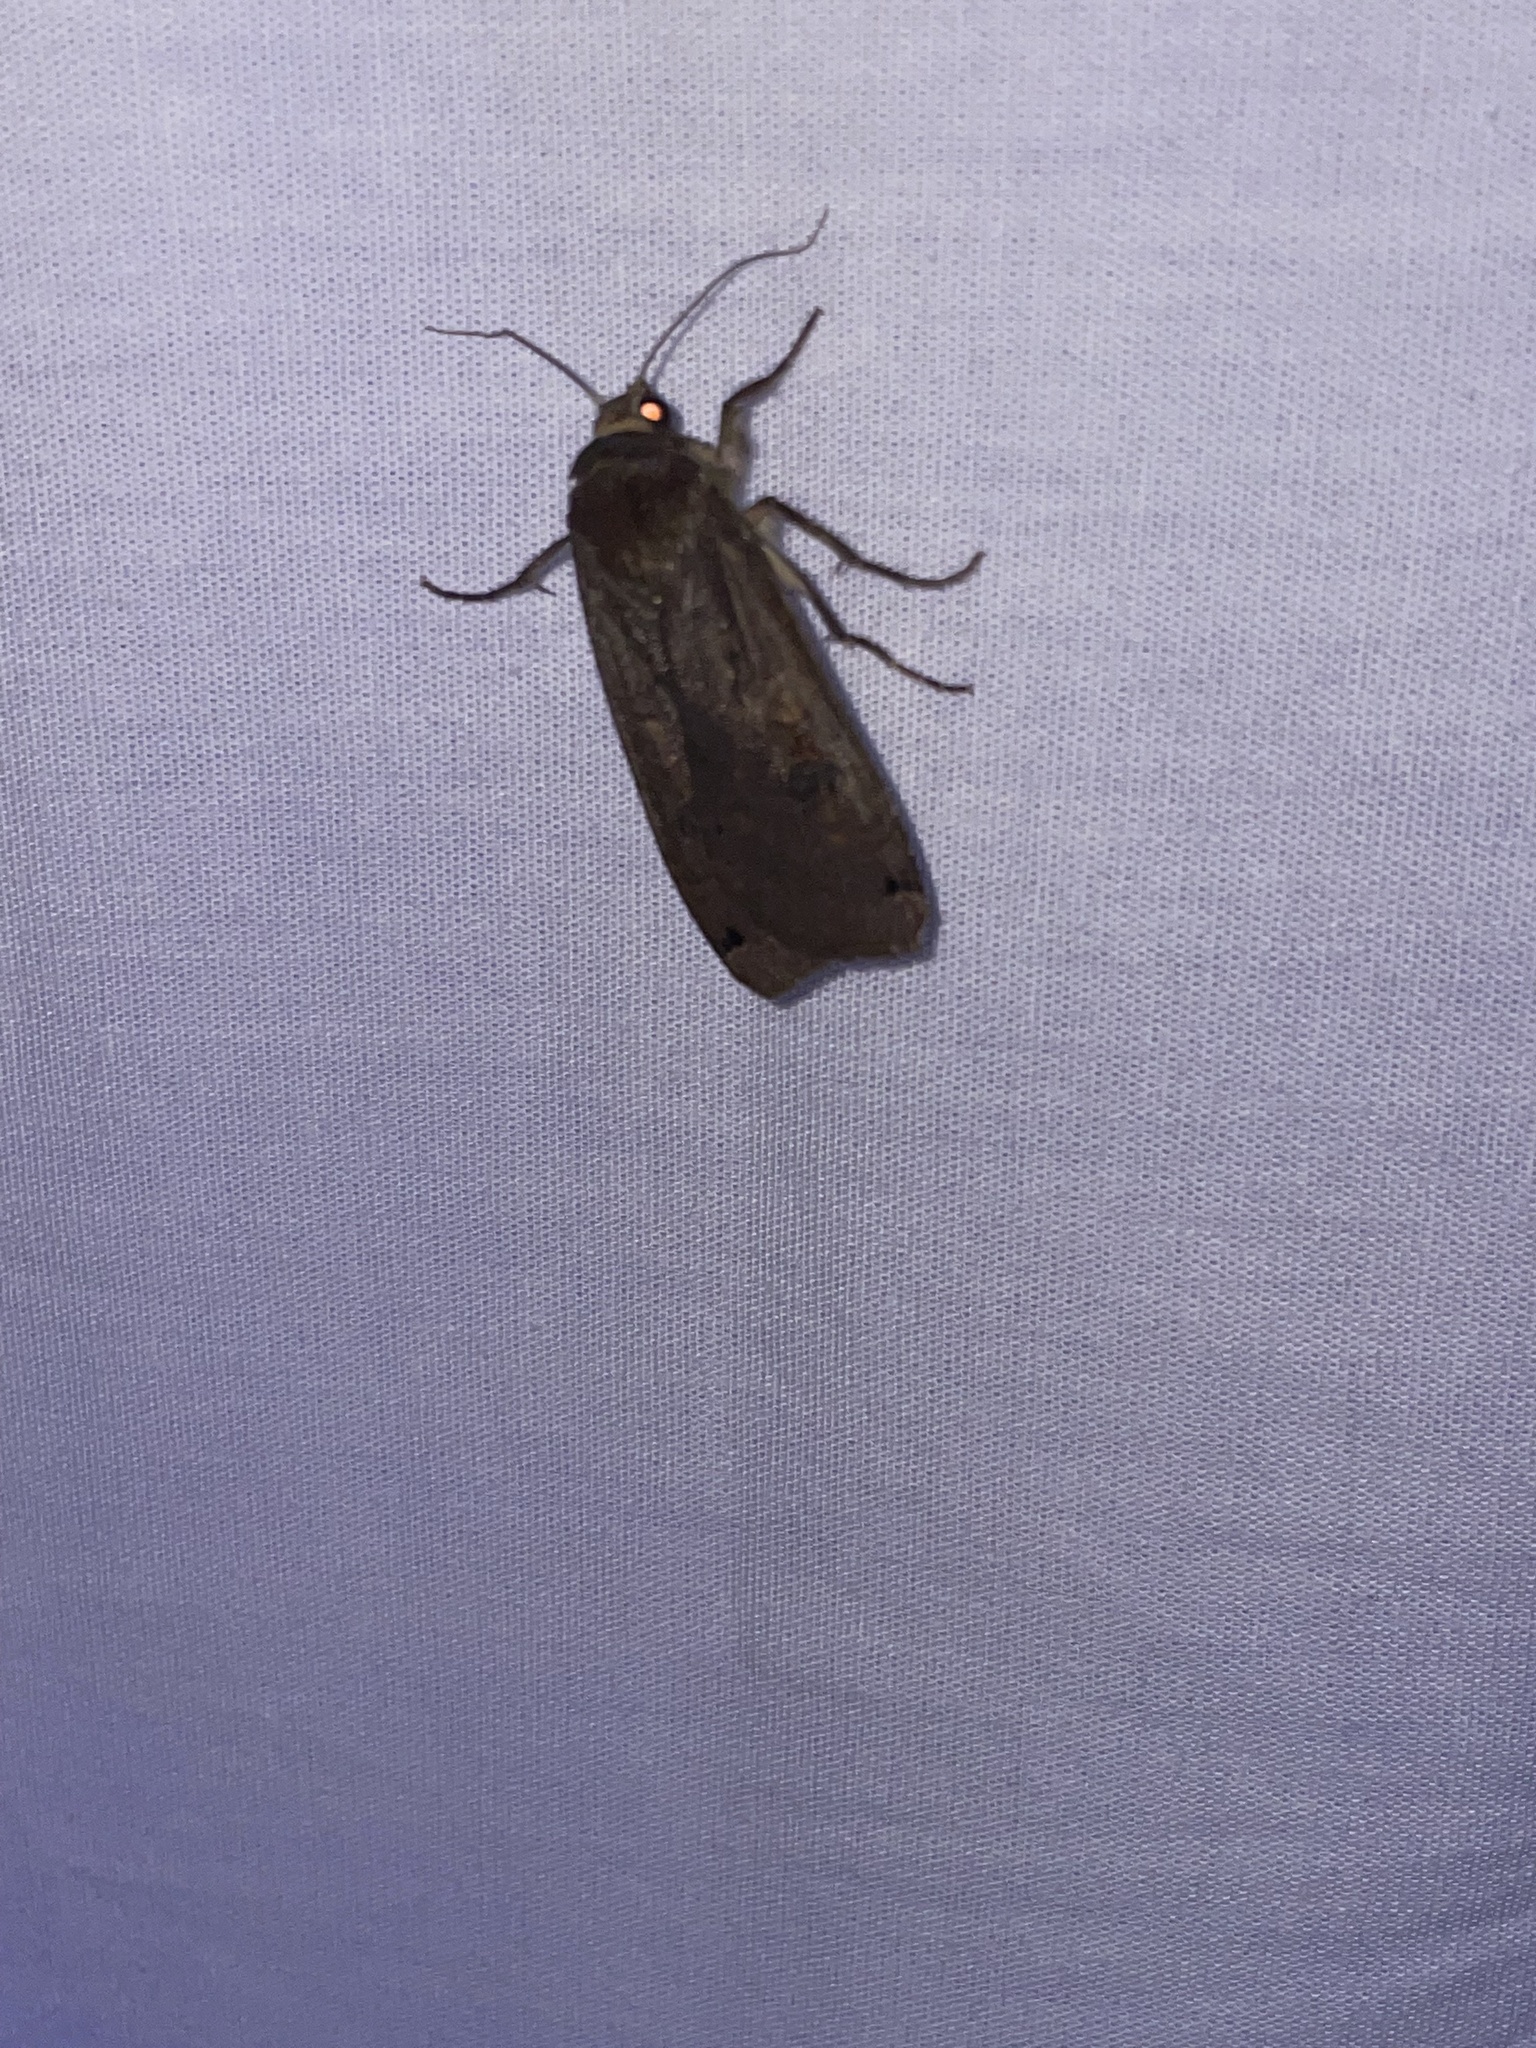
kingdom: Animalia
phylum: Arthropoda
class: Insecta
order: Lepidoptera
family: Noctuidae
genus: Noctua
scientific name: Noctua pronuba
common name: Large yellow underwing
